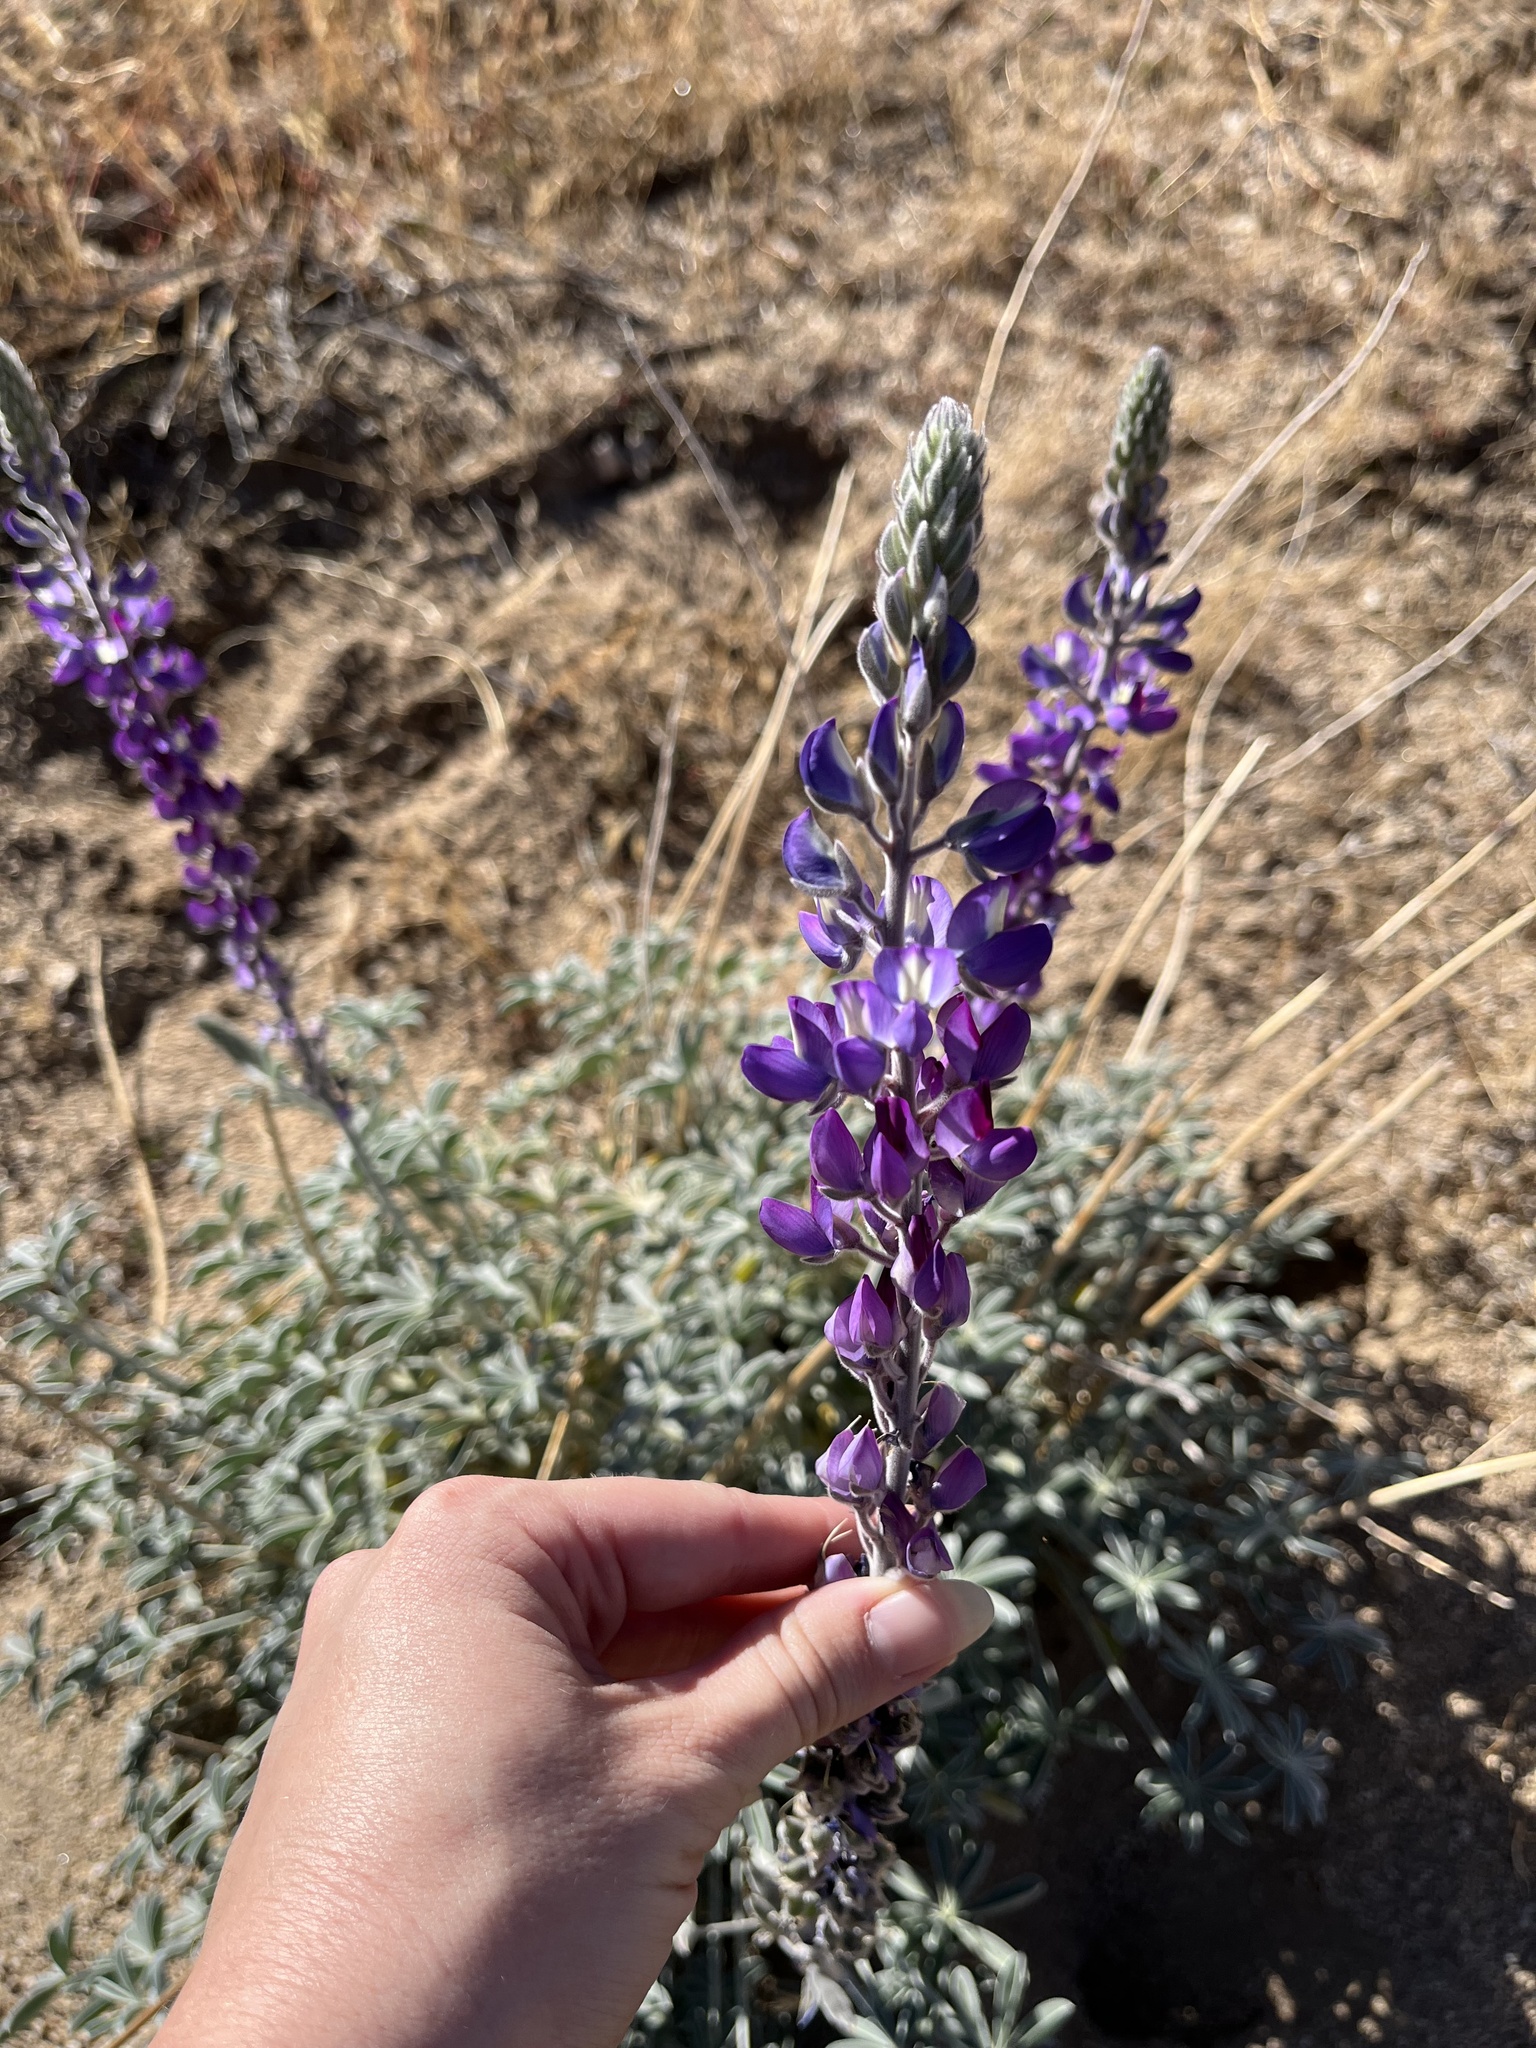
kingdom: Plantae
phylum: Tracheophyta
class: Magnoliopsida
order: Fabales
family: Fabaceae
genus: Lupinus
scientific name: Lupinus excubitus
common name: Grape soda lupine
